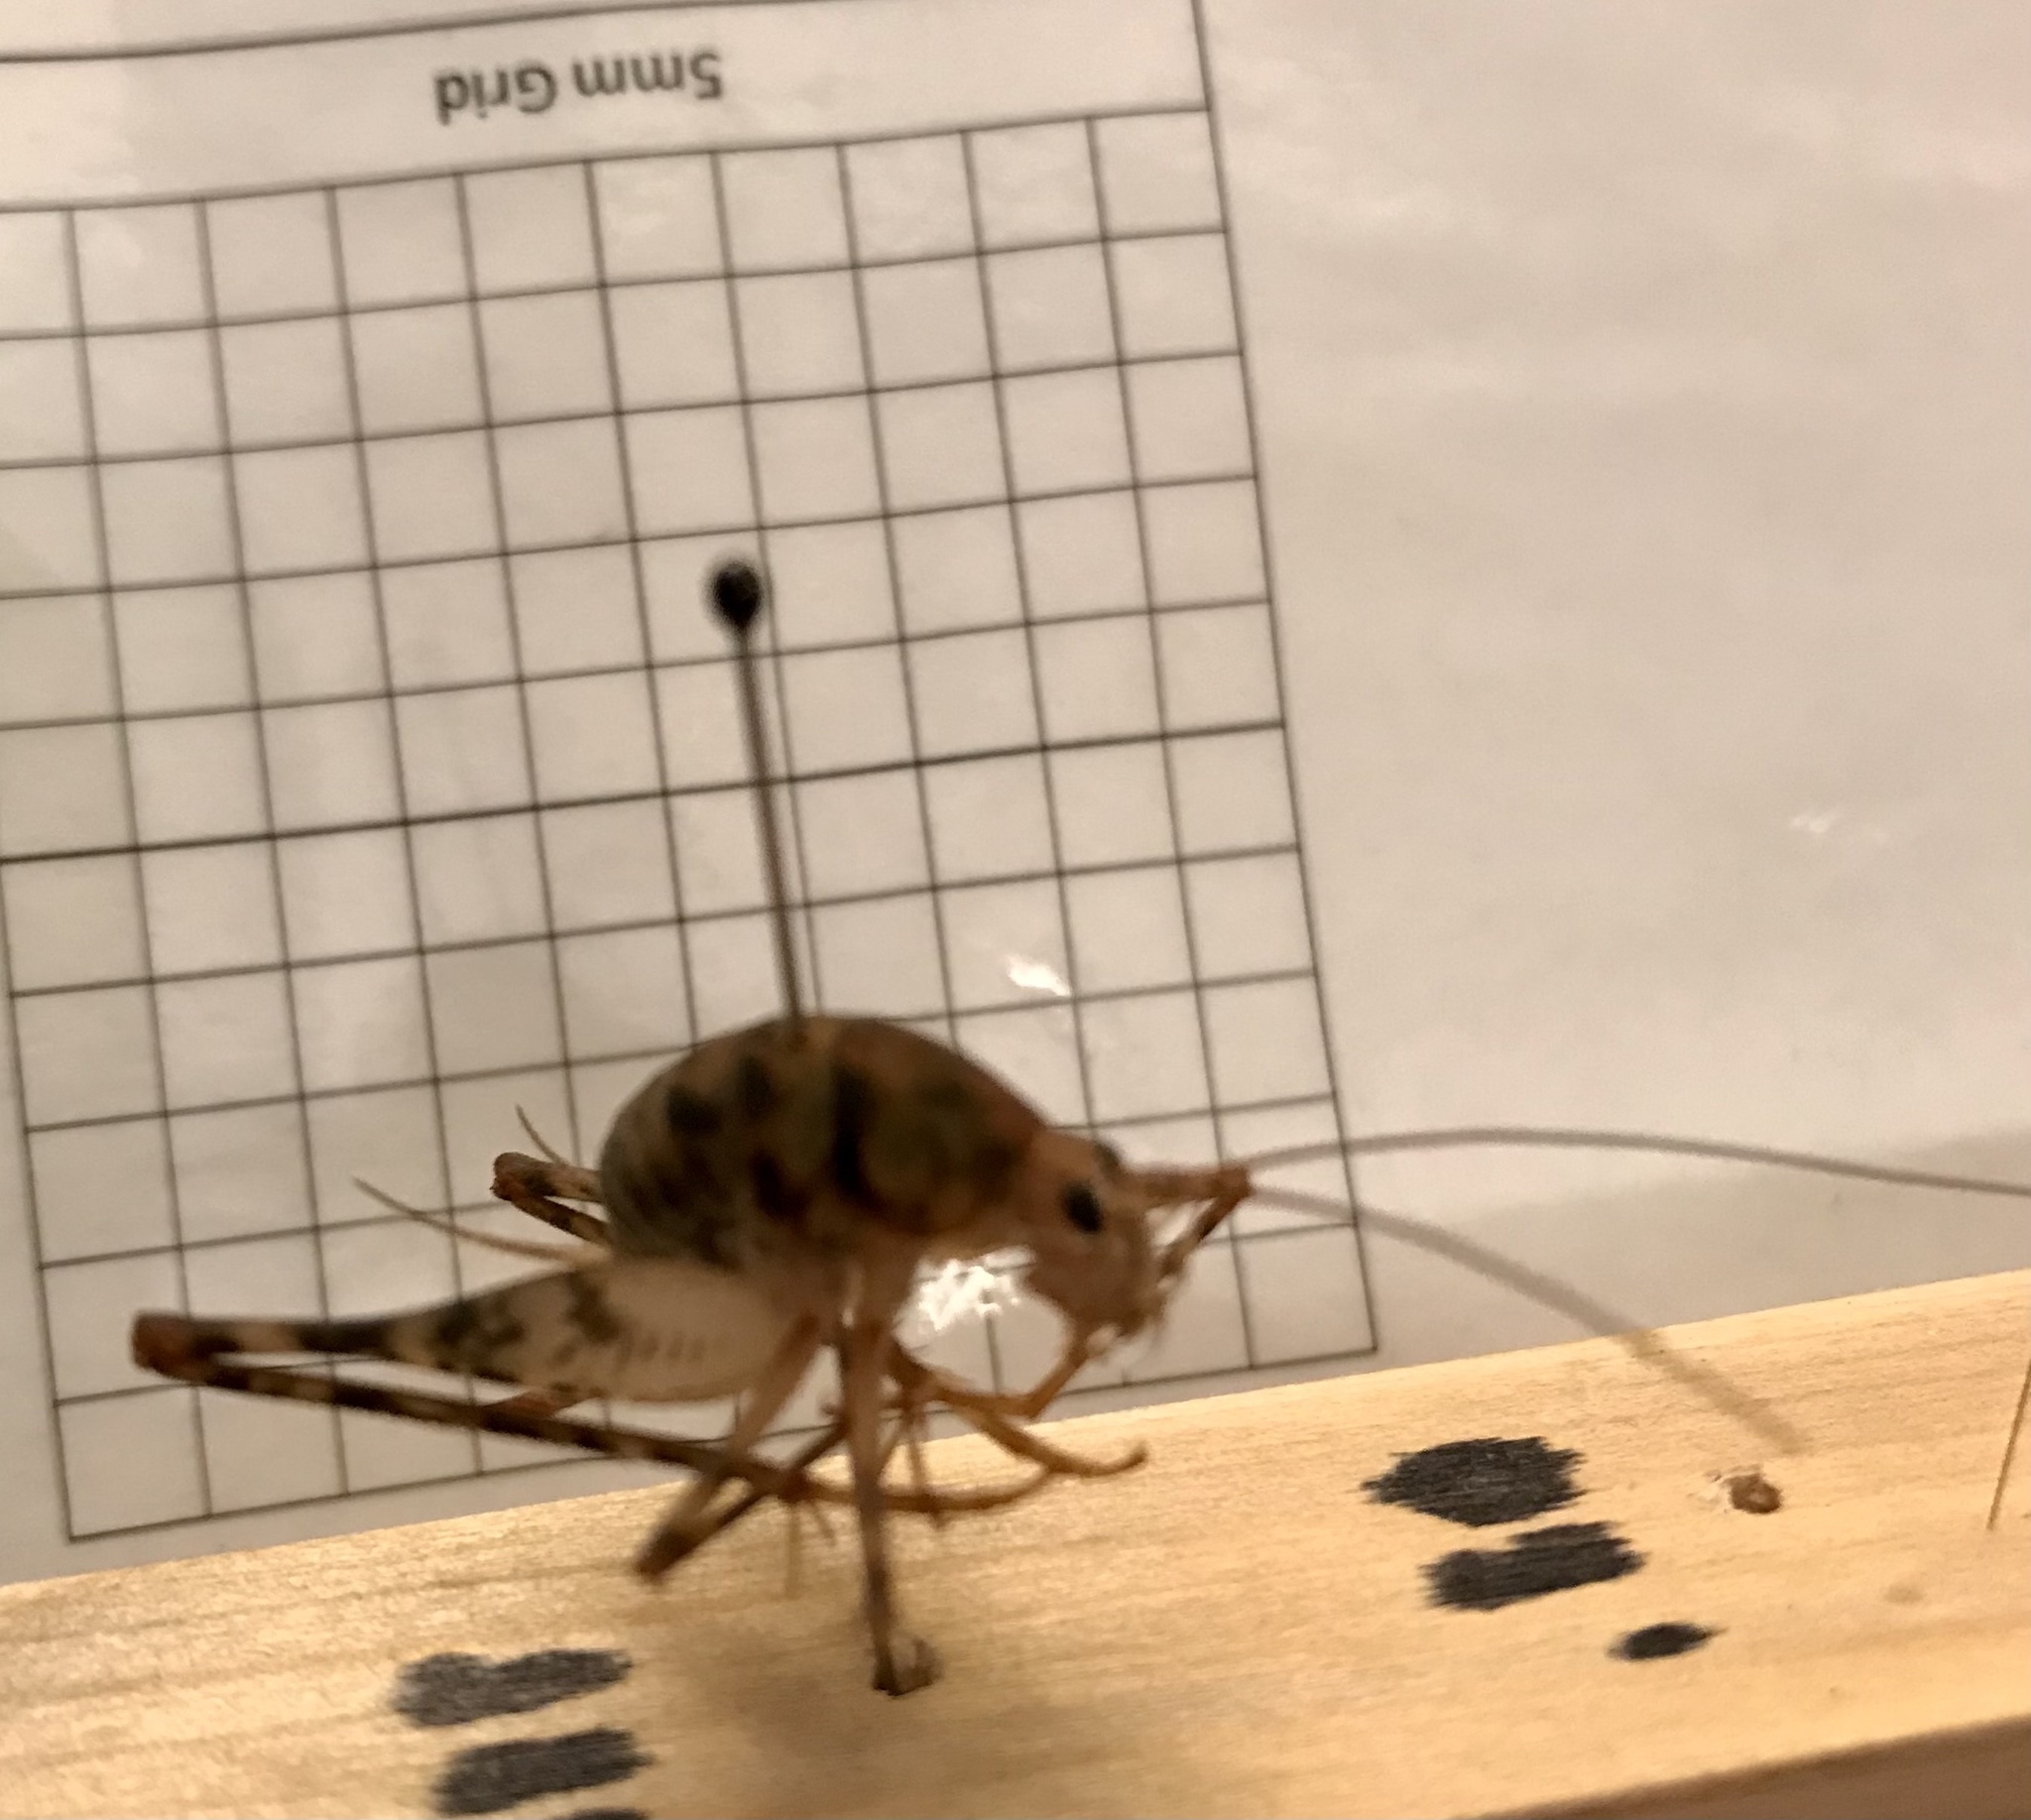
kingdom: Animalia
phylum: Arthropoda
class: Insecta
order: Orthoptera
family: Rhaphidophoridae
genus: Tachycines
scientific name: Tachycines asynamorus
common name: Greenhouse camel cricket
